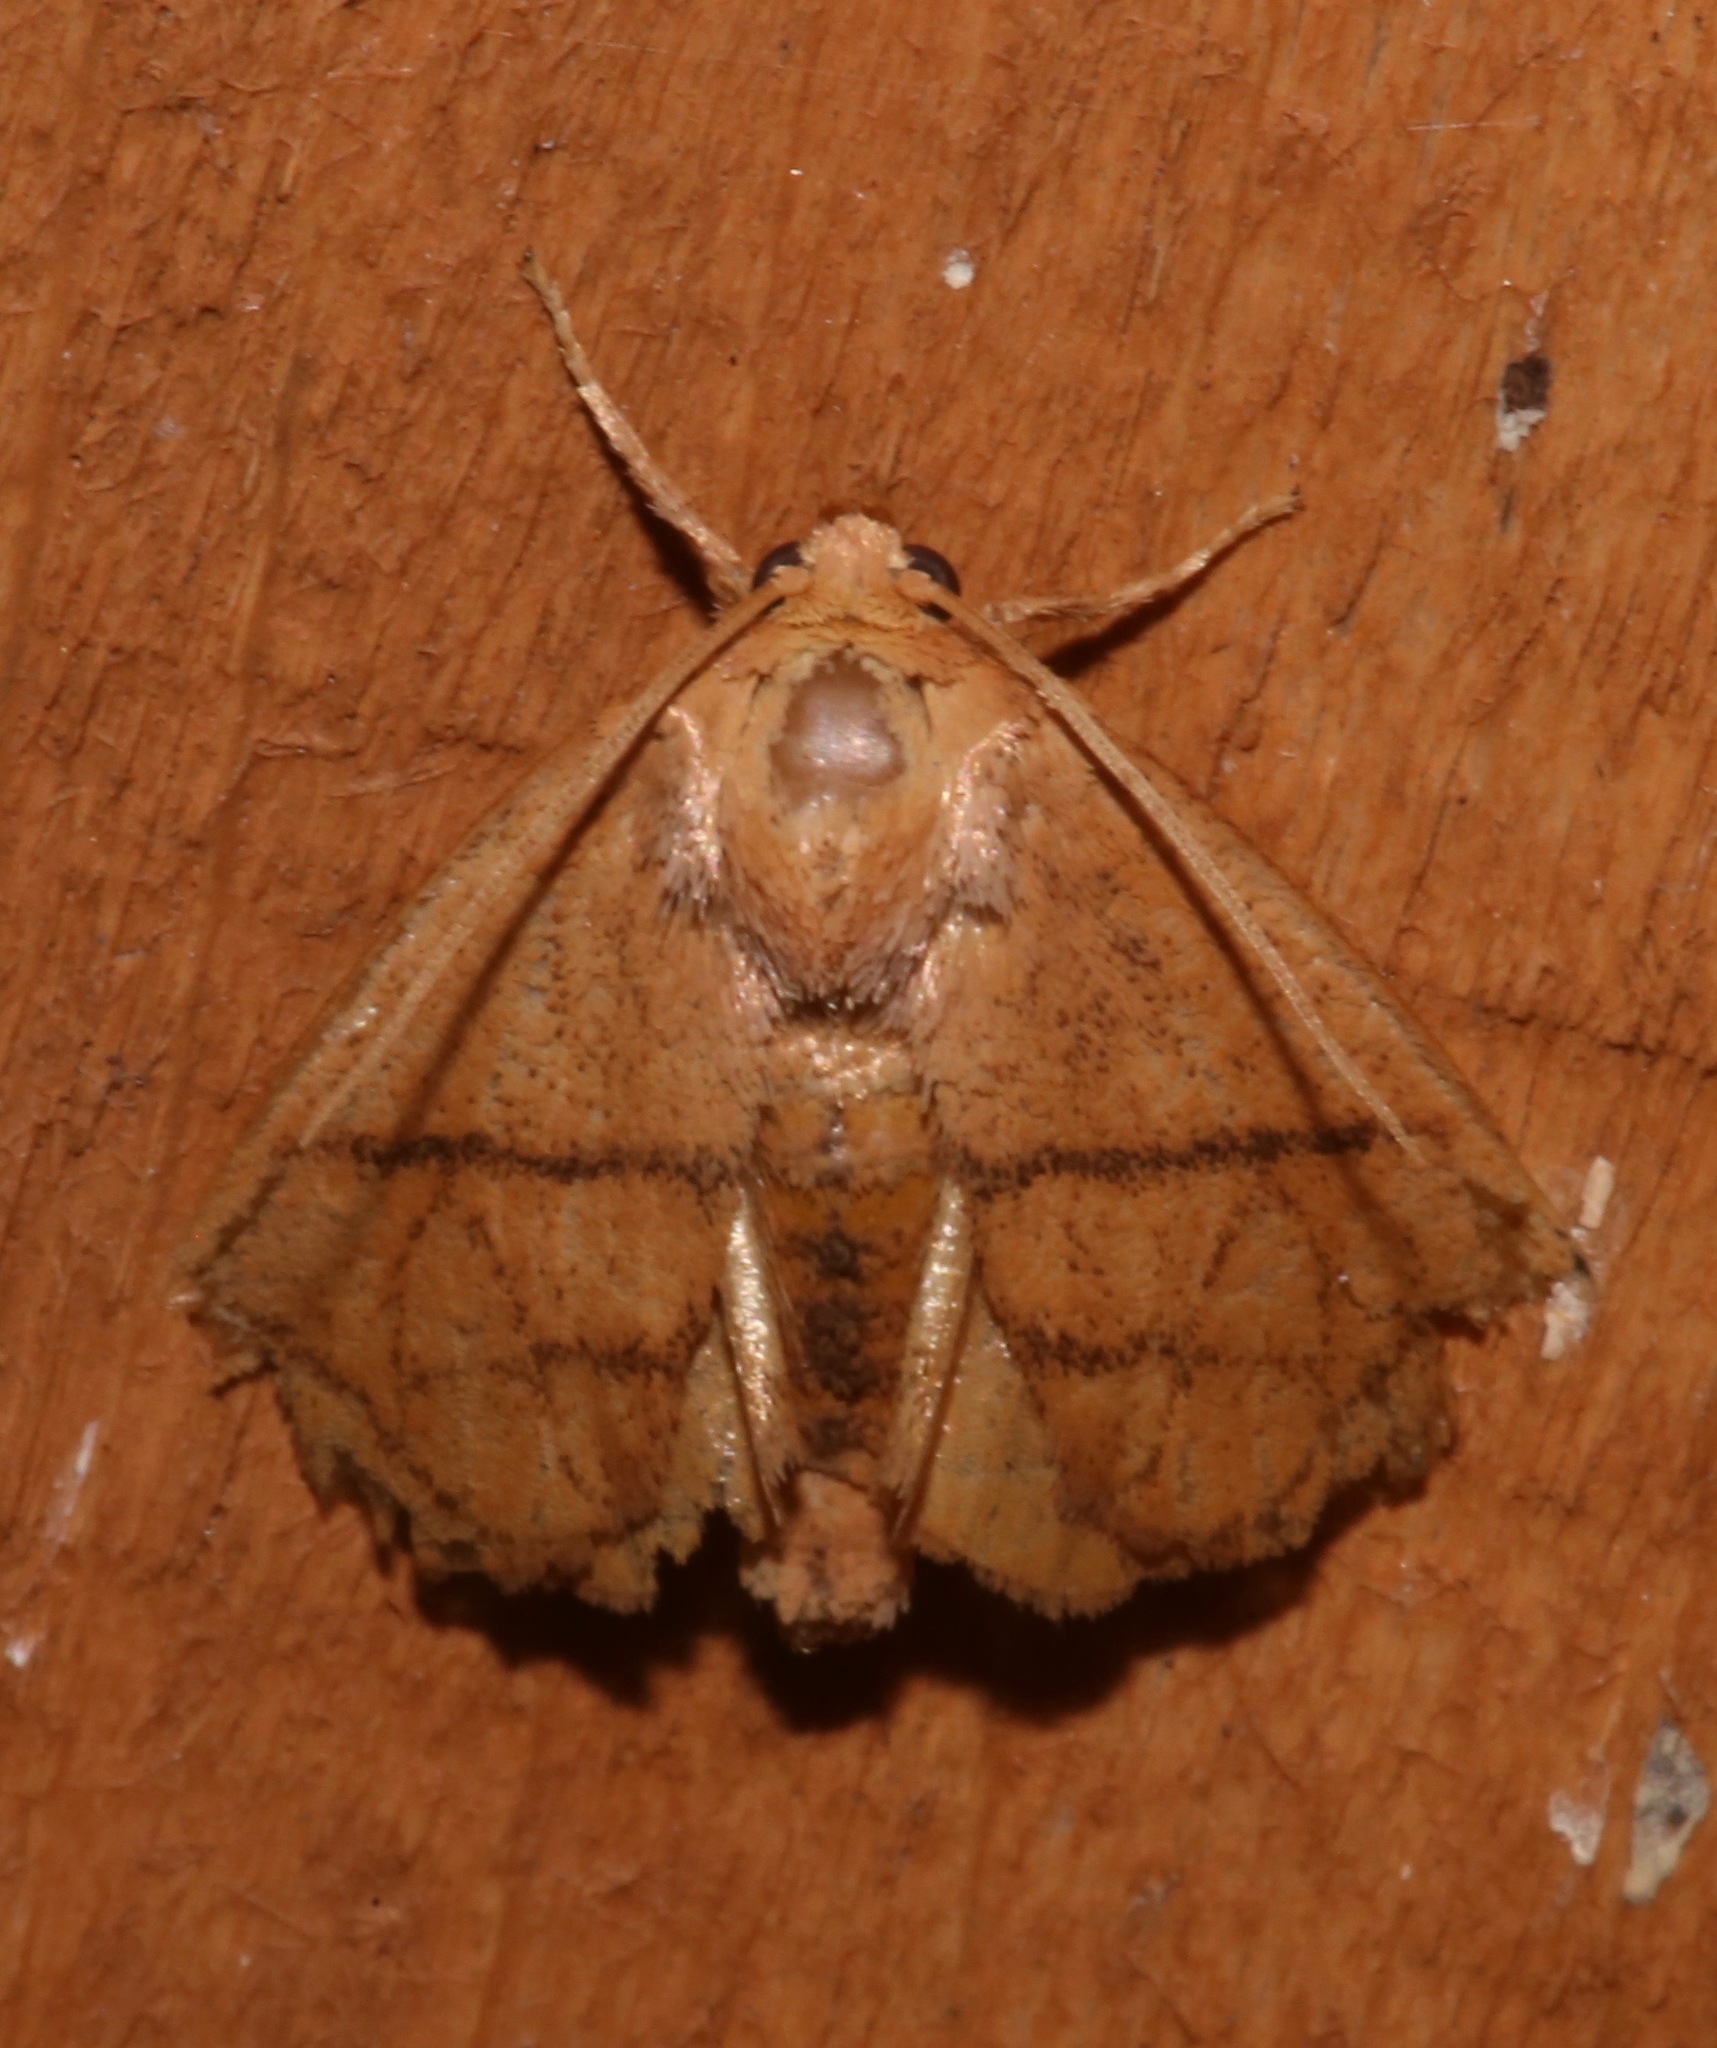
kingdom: Animalia
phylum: Arthropoda
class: Insecta
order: Lepidoptera
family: Limacodidae
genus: Apoda
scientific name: Apoda y-inversa
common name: Yellow-collared slug moth
